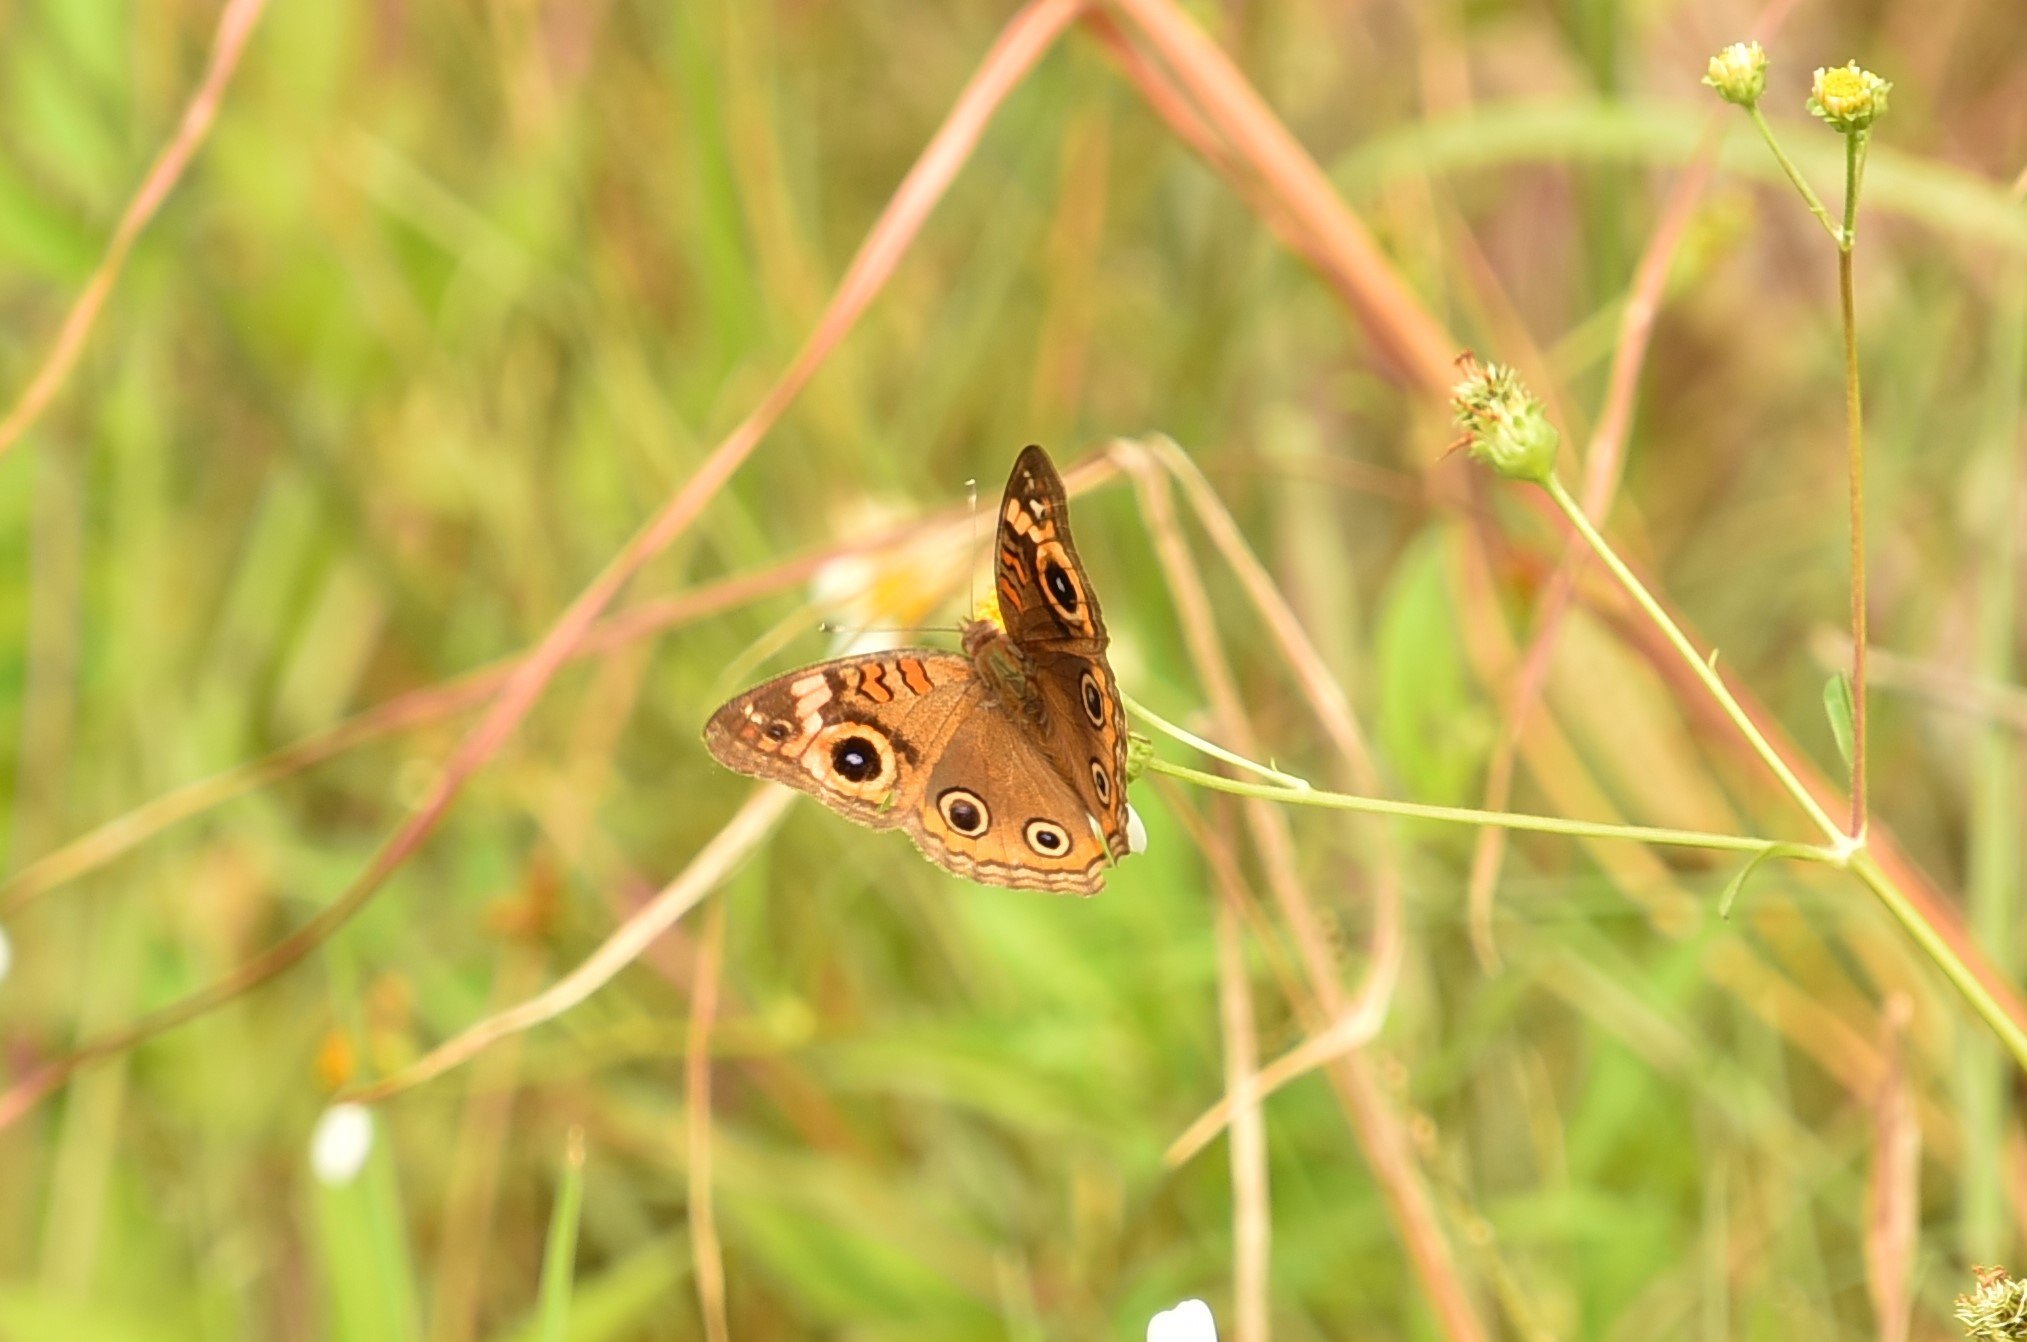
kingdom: Animalia
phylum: Arthropoda
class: Insecta
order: Lepidoptera
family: Nymphalidae
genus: Junonia
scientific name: Junonia neildi
